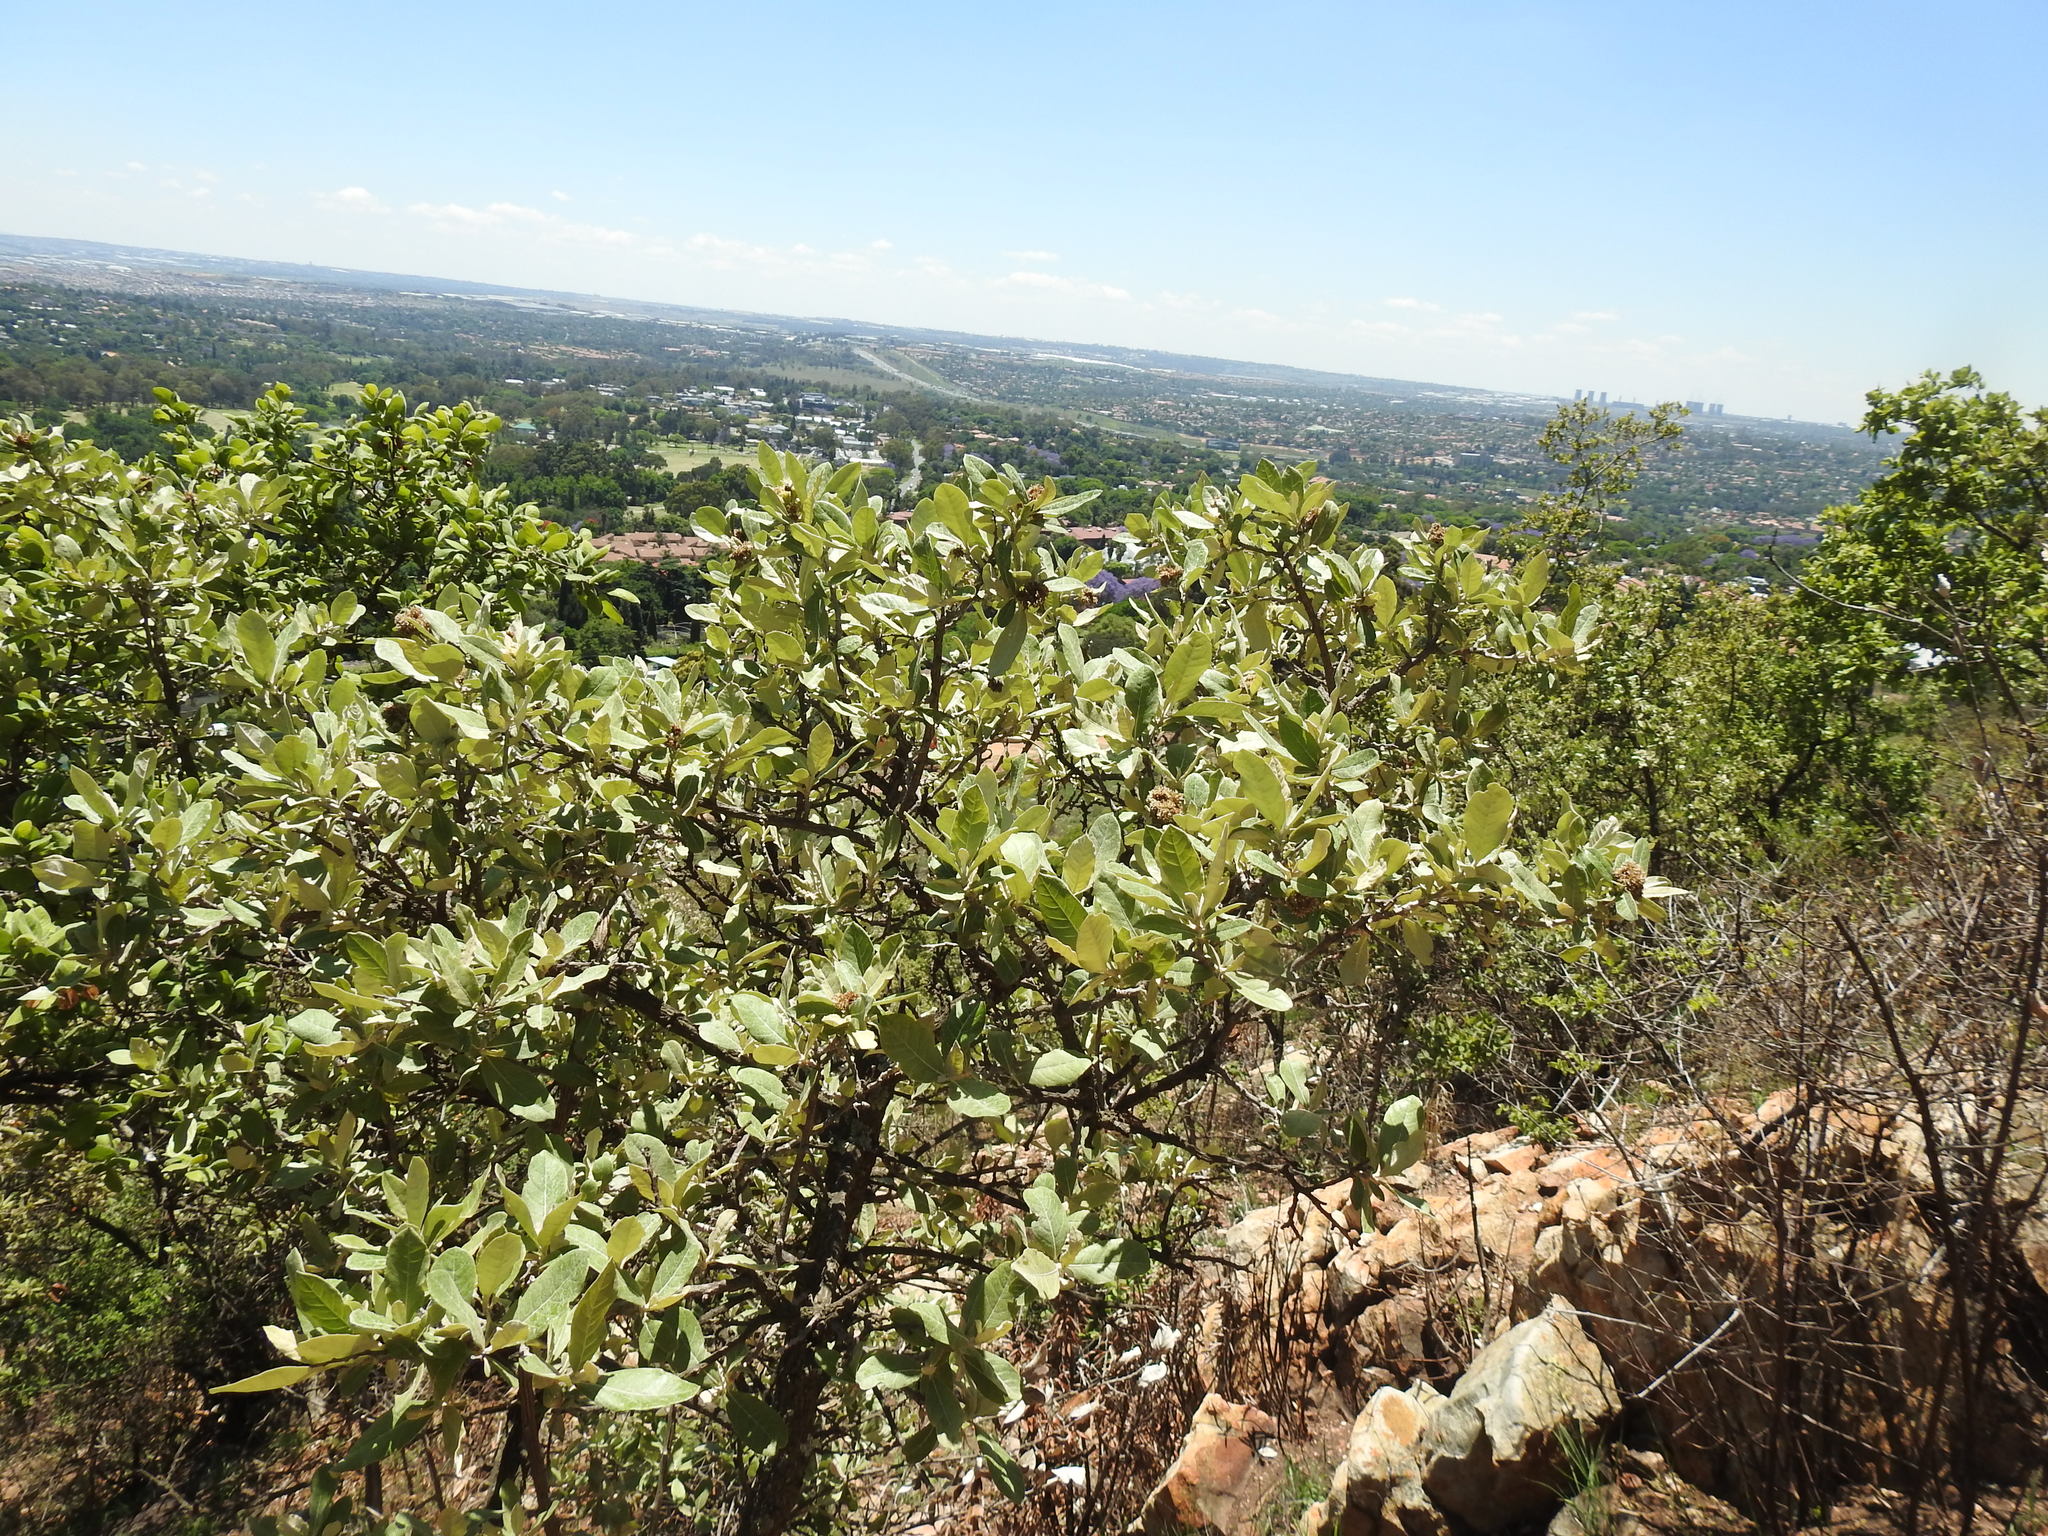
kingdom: Plantae
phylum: Tracheophyta
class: Magnoliopsida
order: Asterales
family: Asteraceae
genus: Brachylaena
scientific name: Brachylaena discolor
